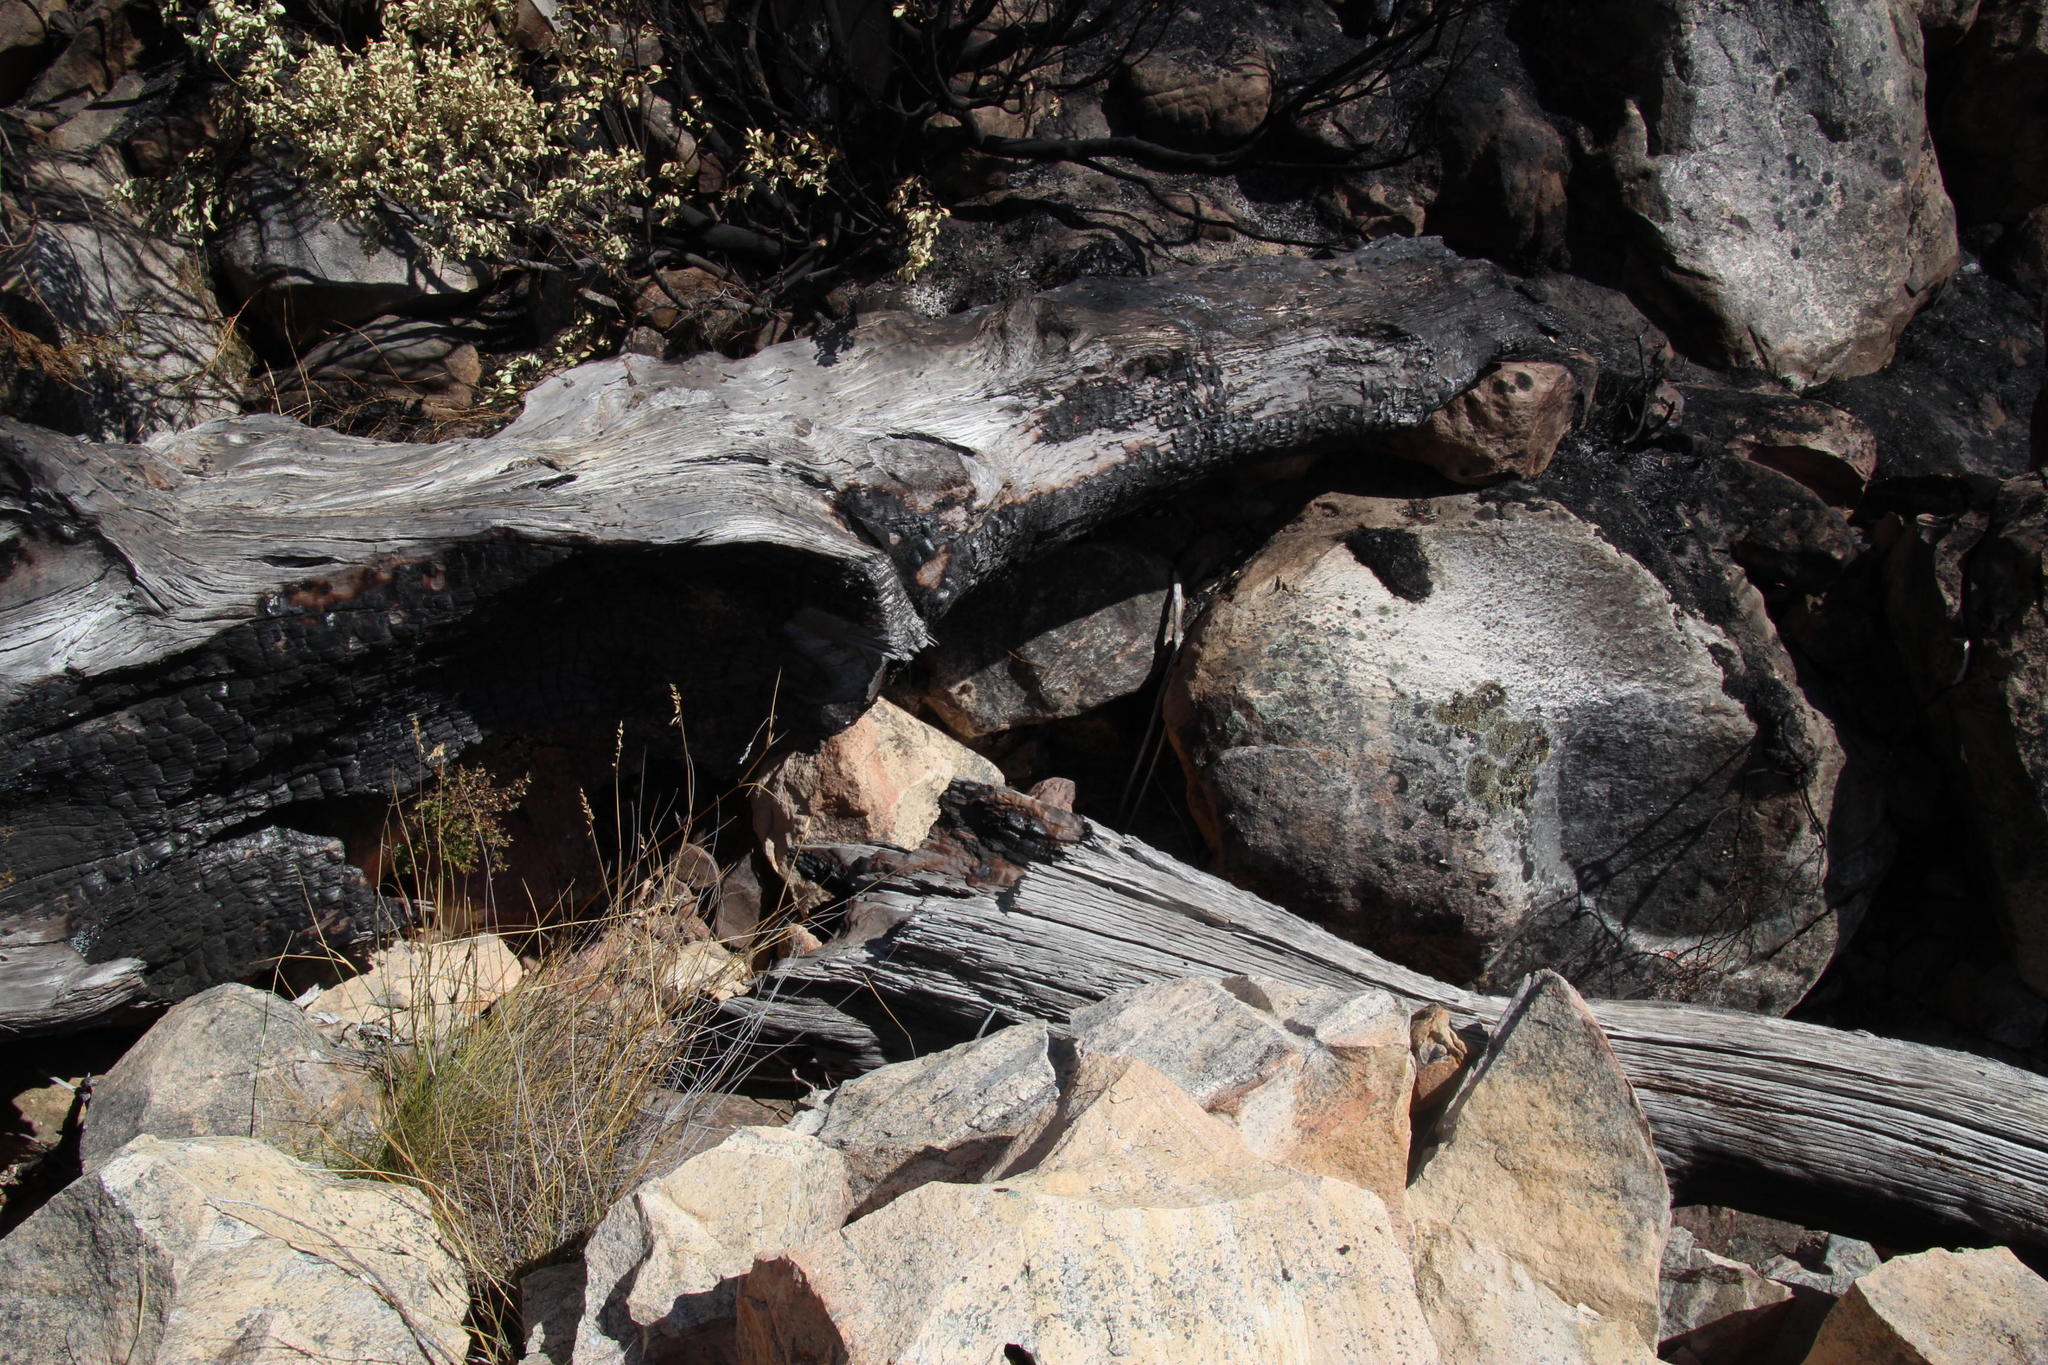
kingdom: Plantae
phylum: Tracheophyta
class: Pinopsida
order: Pinales
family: Cupressaceae
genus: Widdringtonia
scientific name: Widdringtonia nodiflora
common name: Cape cypress
